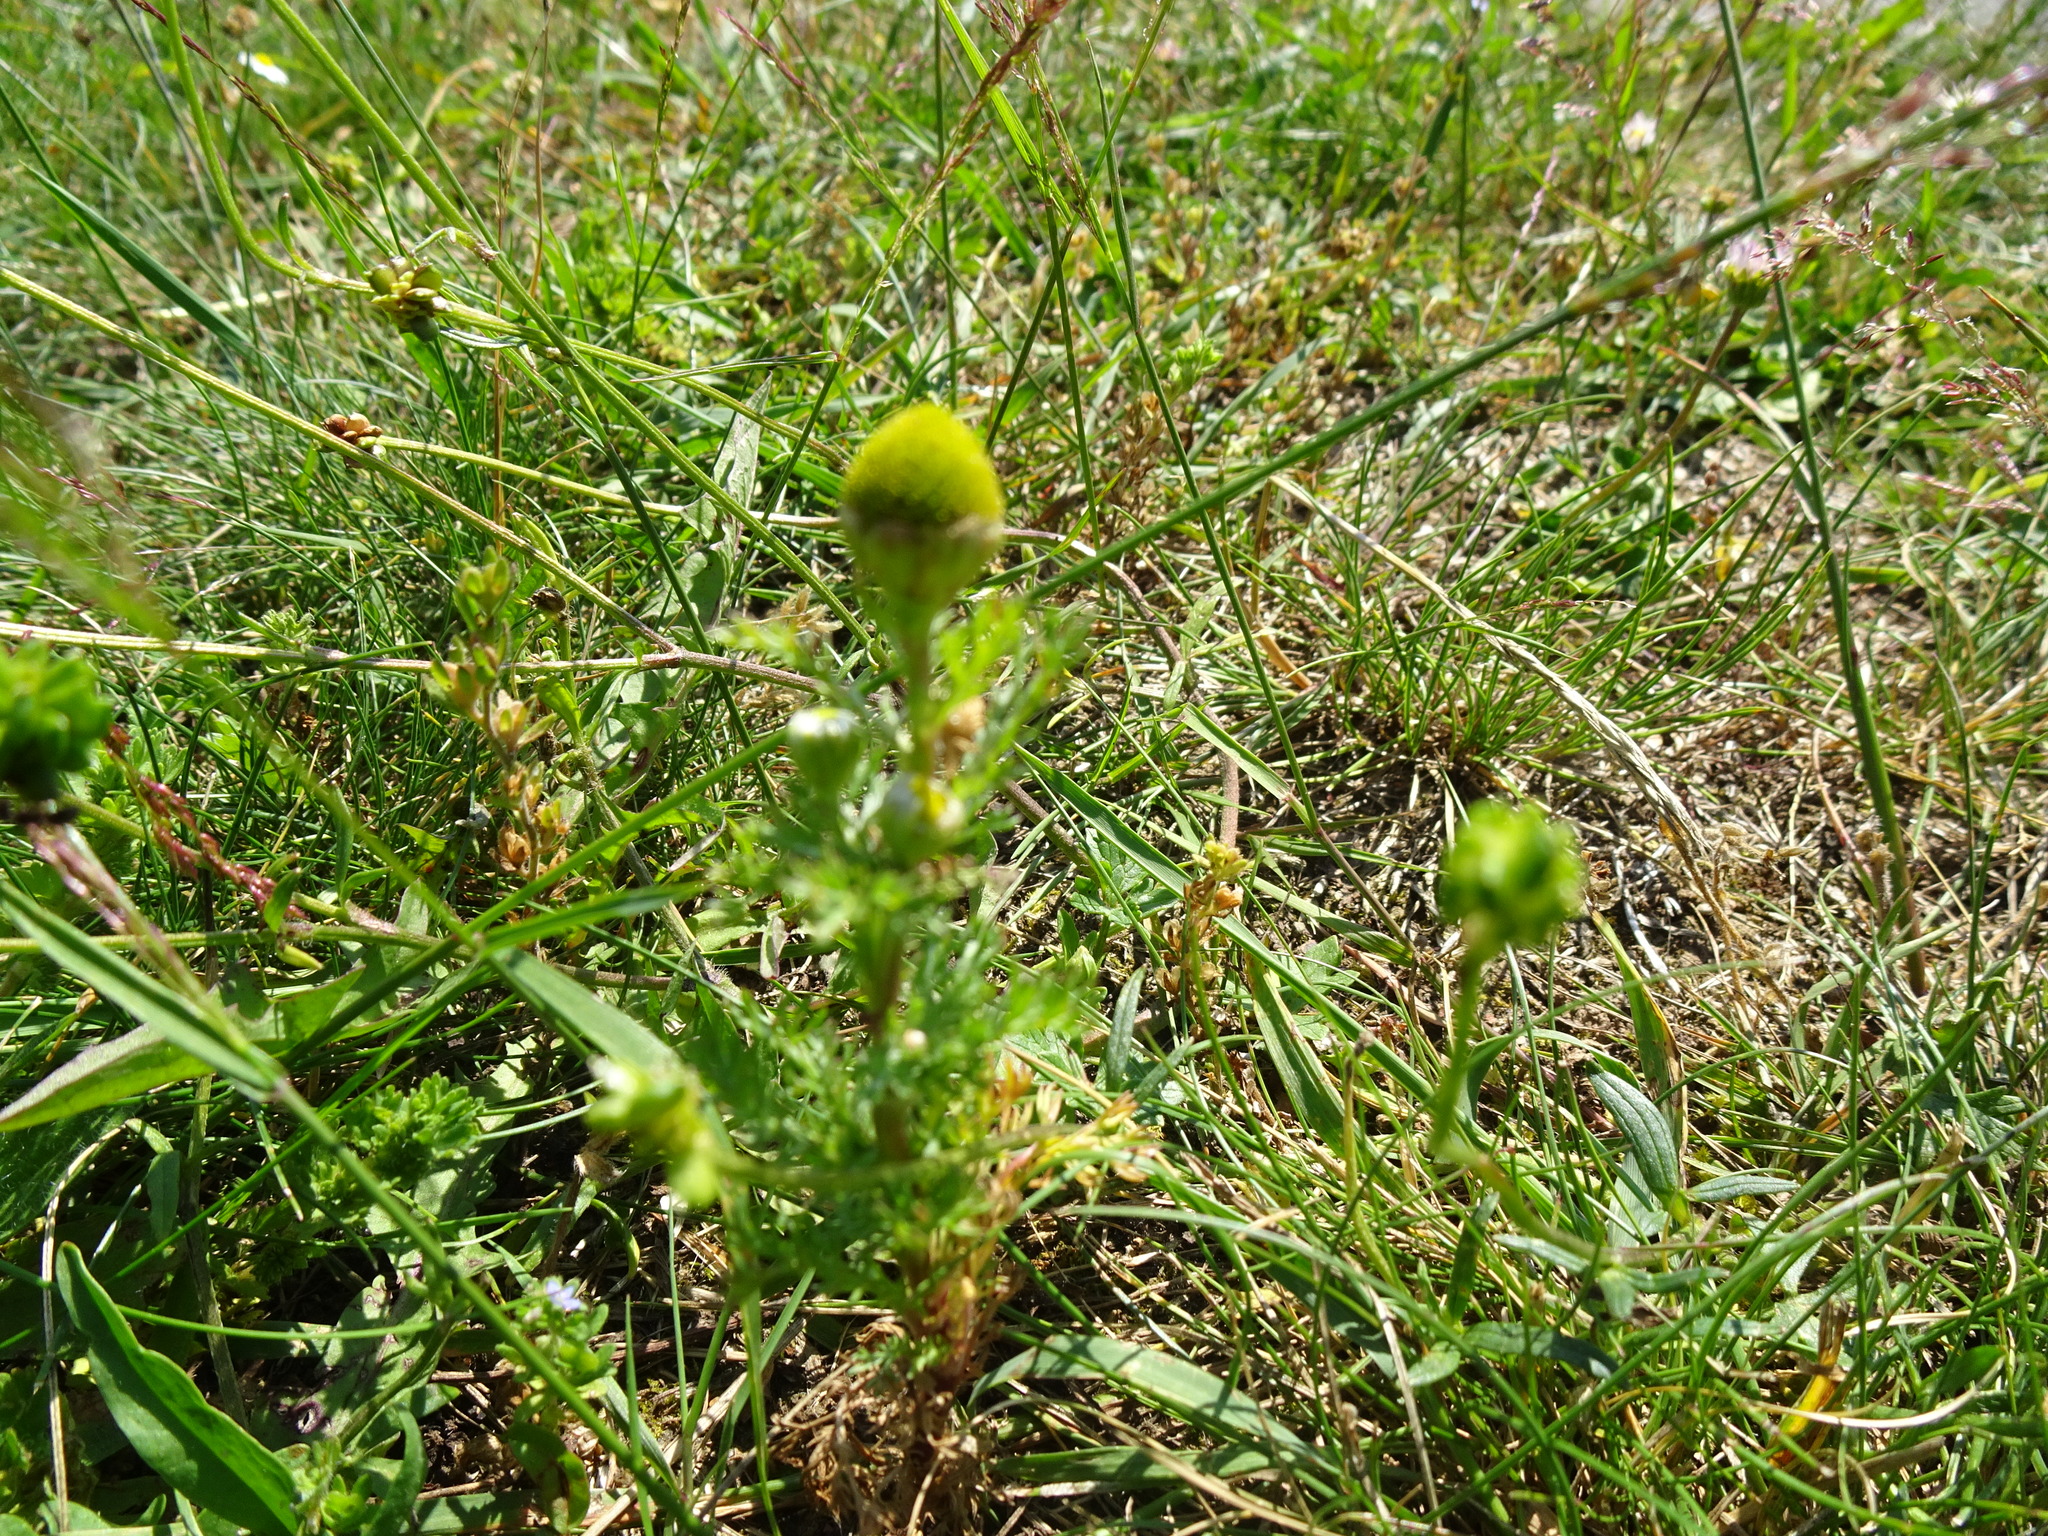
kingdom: Plantae
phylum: Tracheophyta
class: Magnoliopsida
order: Asterales
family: Asteraceae
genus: Matricaria
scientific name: Matricaria discoidea
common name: Disc mayweed
